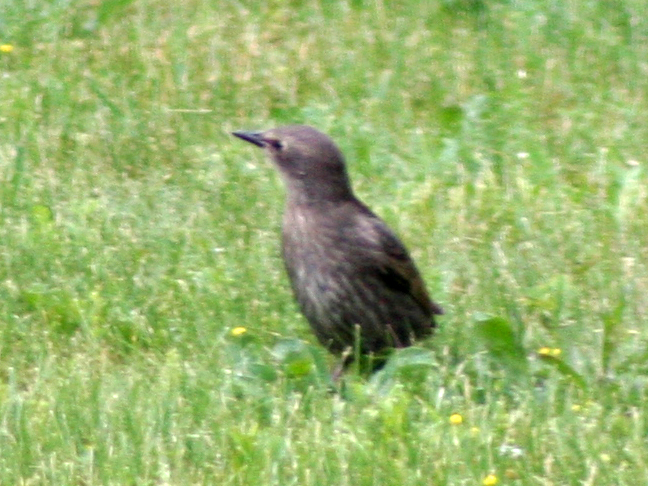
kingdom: Animalia
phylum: Chordata
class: Aves
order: Passeriformes
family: Sturnidae
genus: Sturnus
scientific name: Sturnus vulgaris
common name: Common starling
